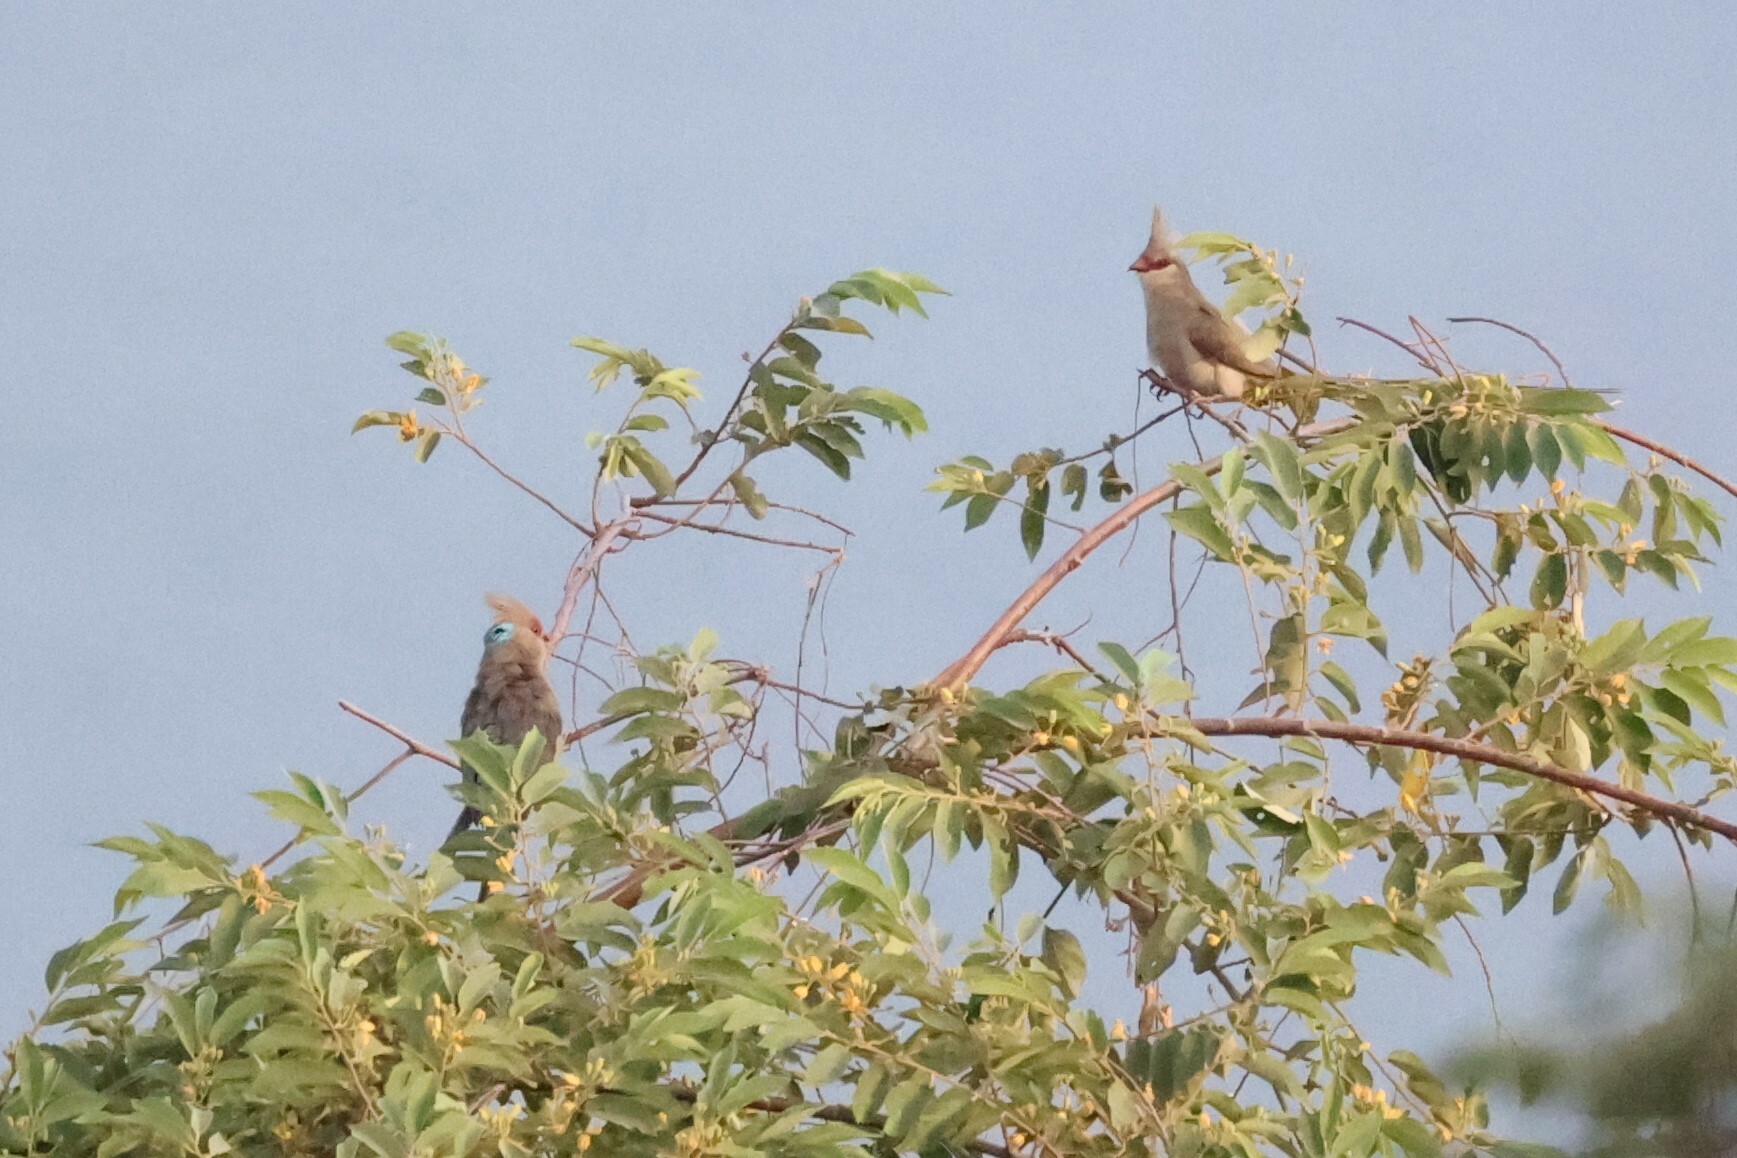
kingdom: Animalia
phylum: Chordata
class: Aves
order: Coliiformes
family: Coliidae
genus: Urocolius
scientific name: Urocolius macrourus
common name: Blue-naped mousebird
